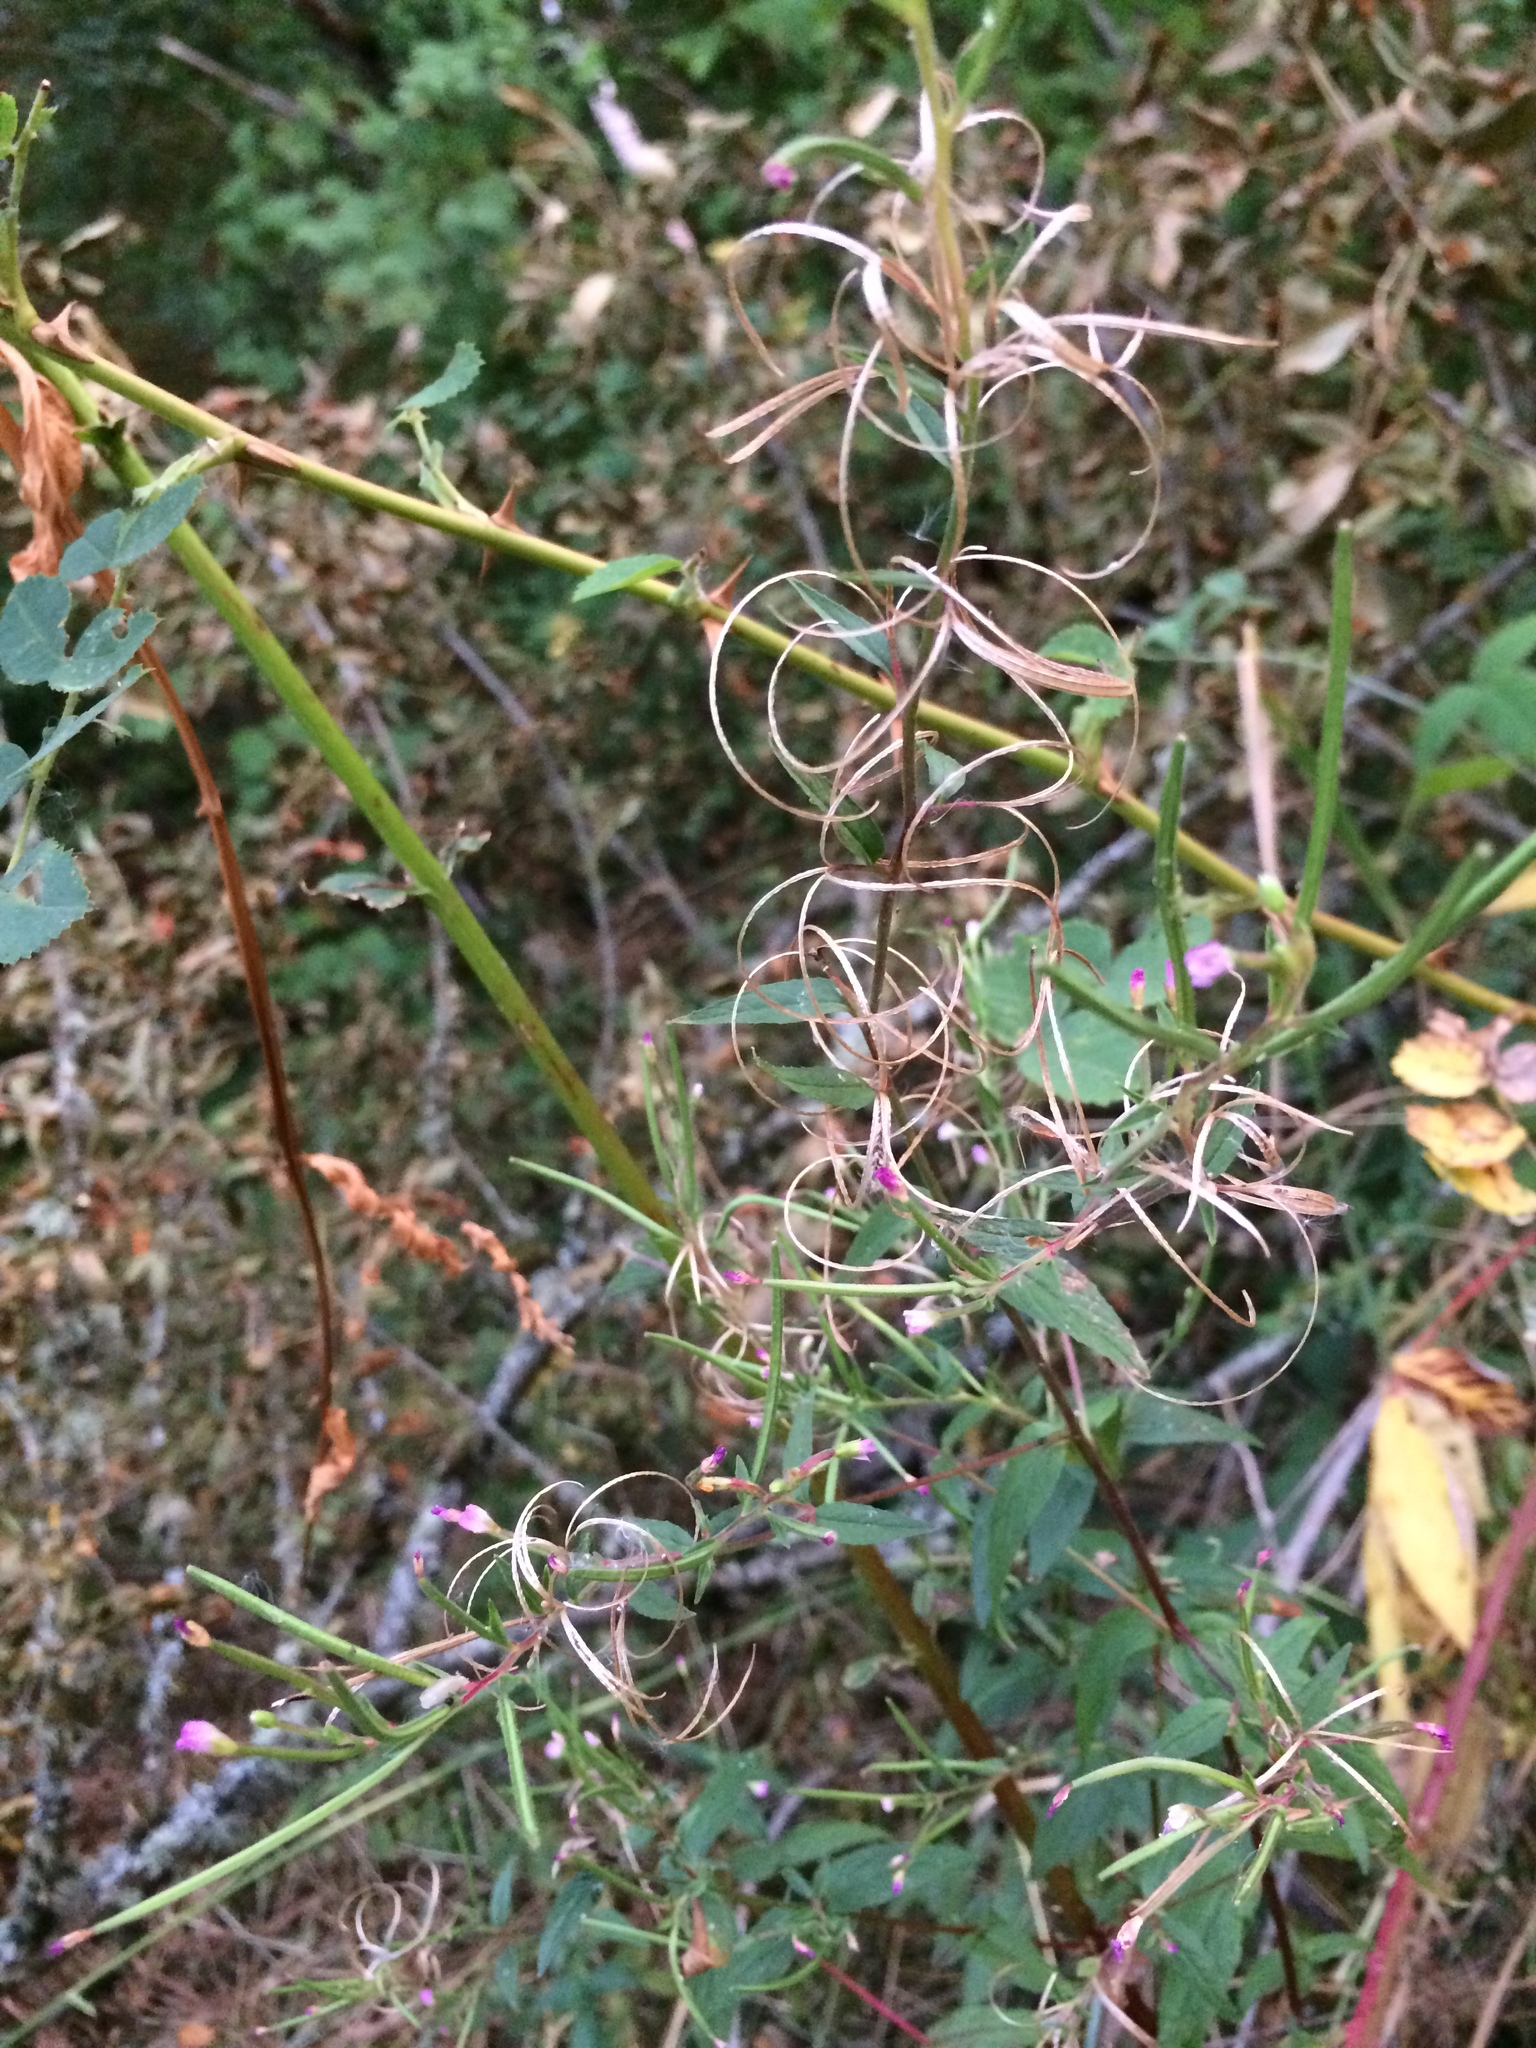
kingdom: Plantae
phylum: Tracheophyta
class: Magnoliopsida
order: Myrtales
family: Onagraceae
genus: Epilobium
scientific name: Epilobium ciliatum
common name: American willowherb
